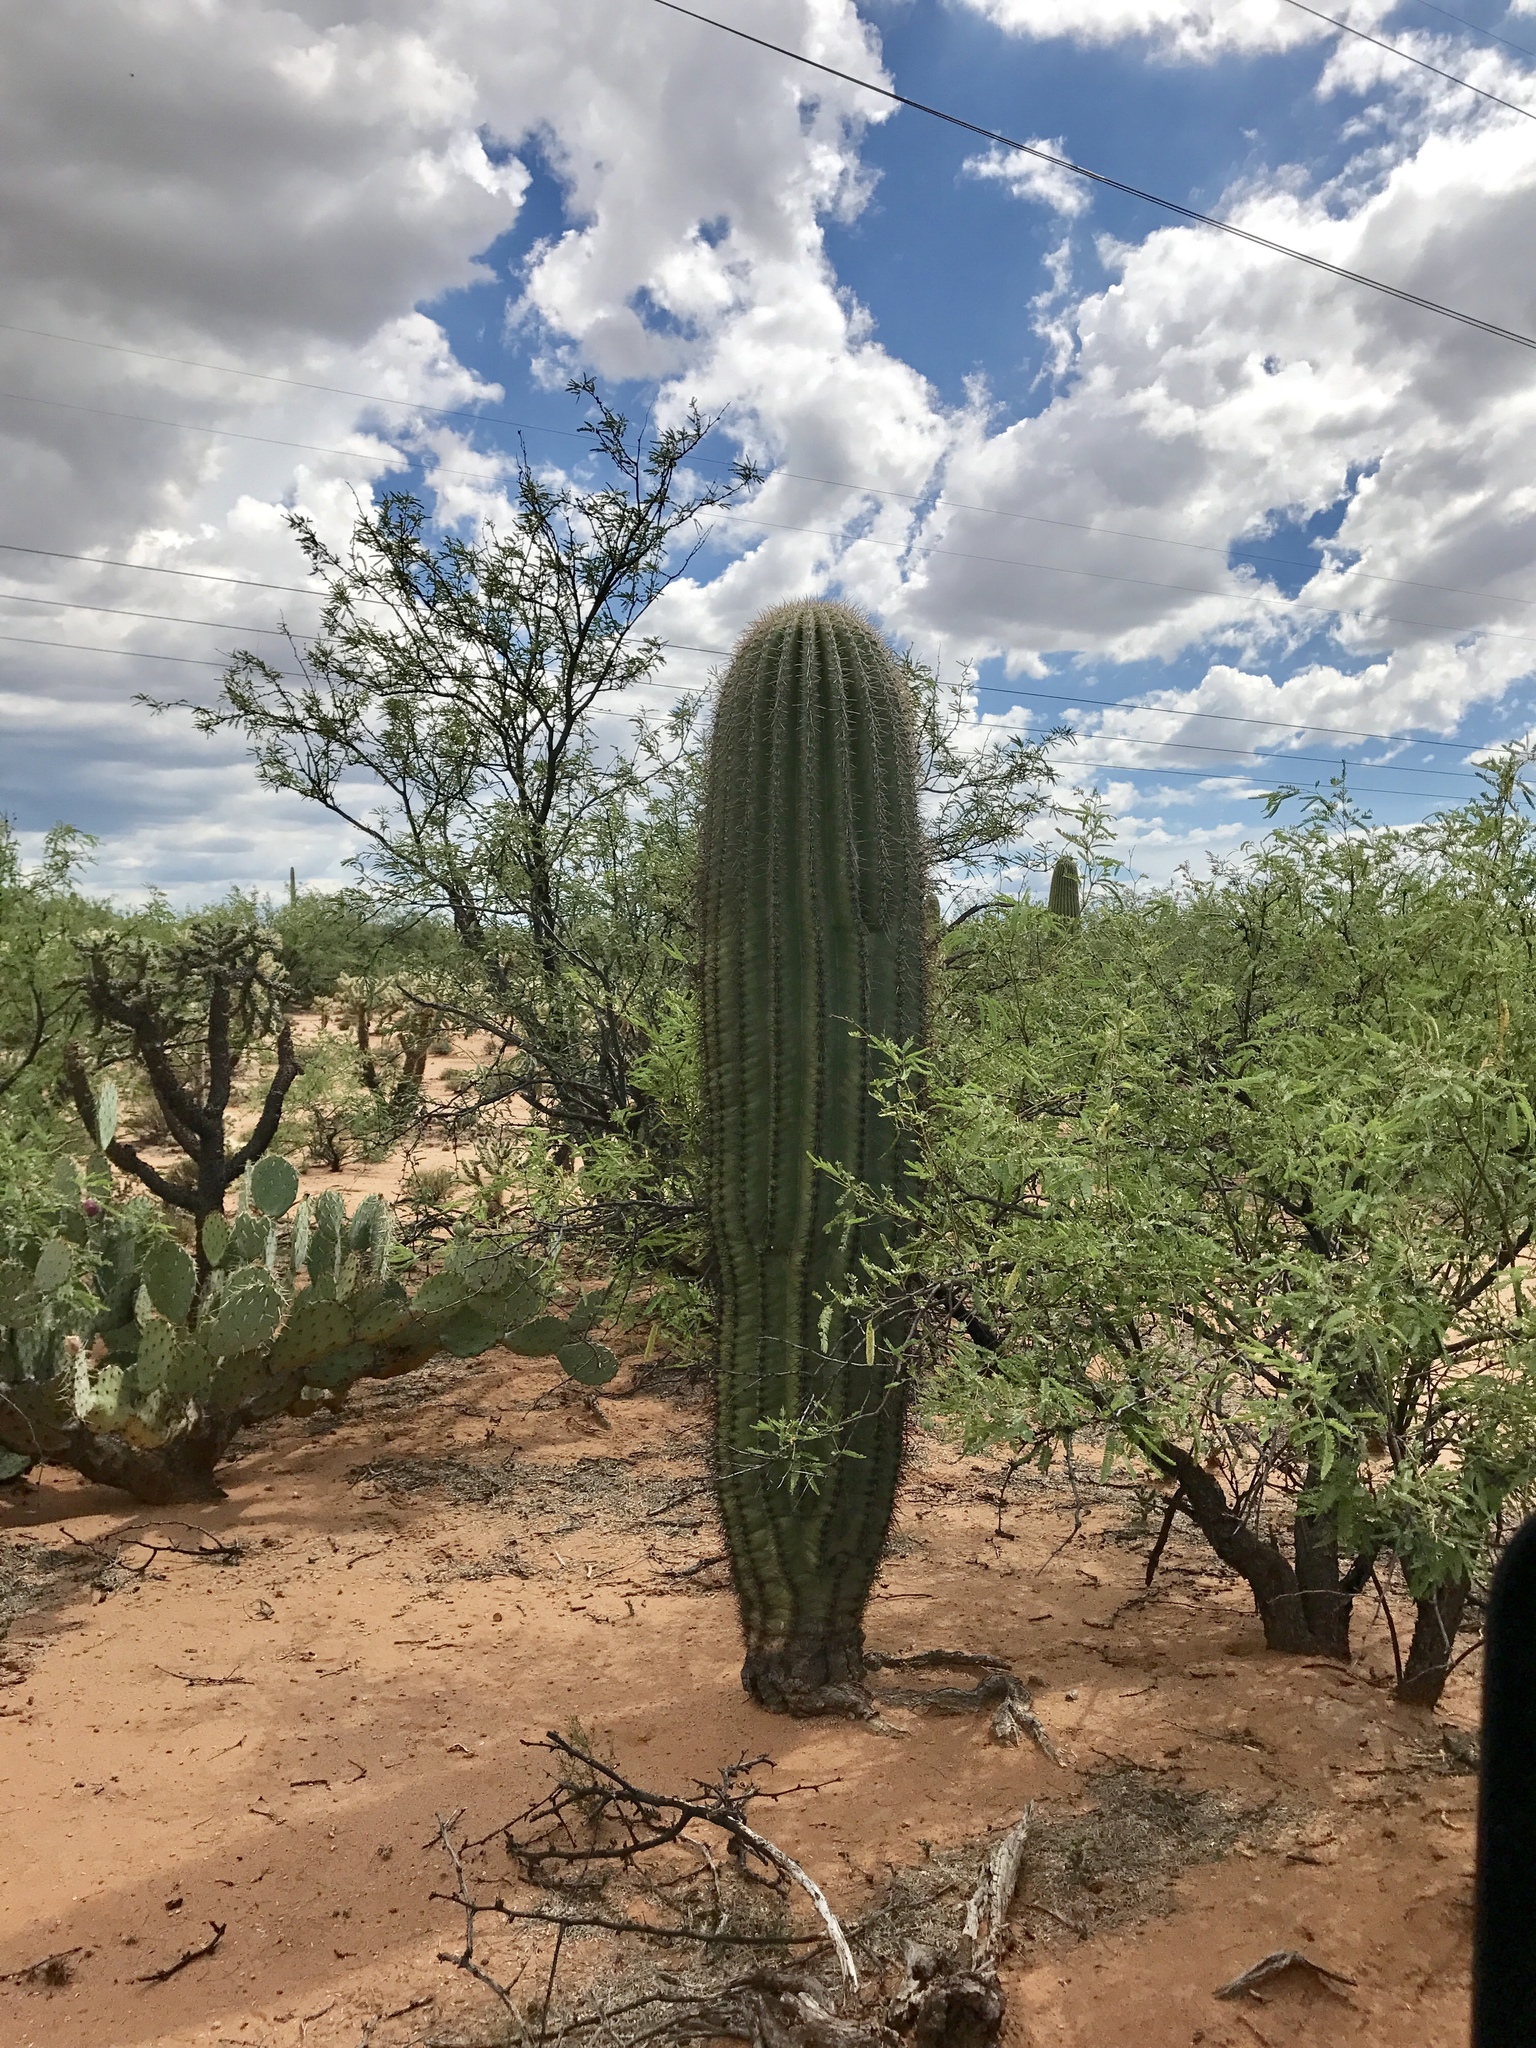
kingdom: Plantae
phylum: Tracheophyta
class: Magnoliopsida
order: Caryophyllales
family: Cactaceae
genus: Carnegiea
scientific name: Carnegiea gigantea
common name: Saguaro
